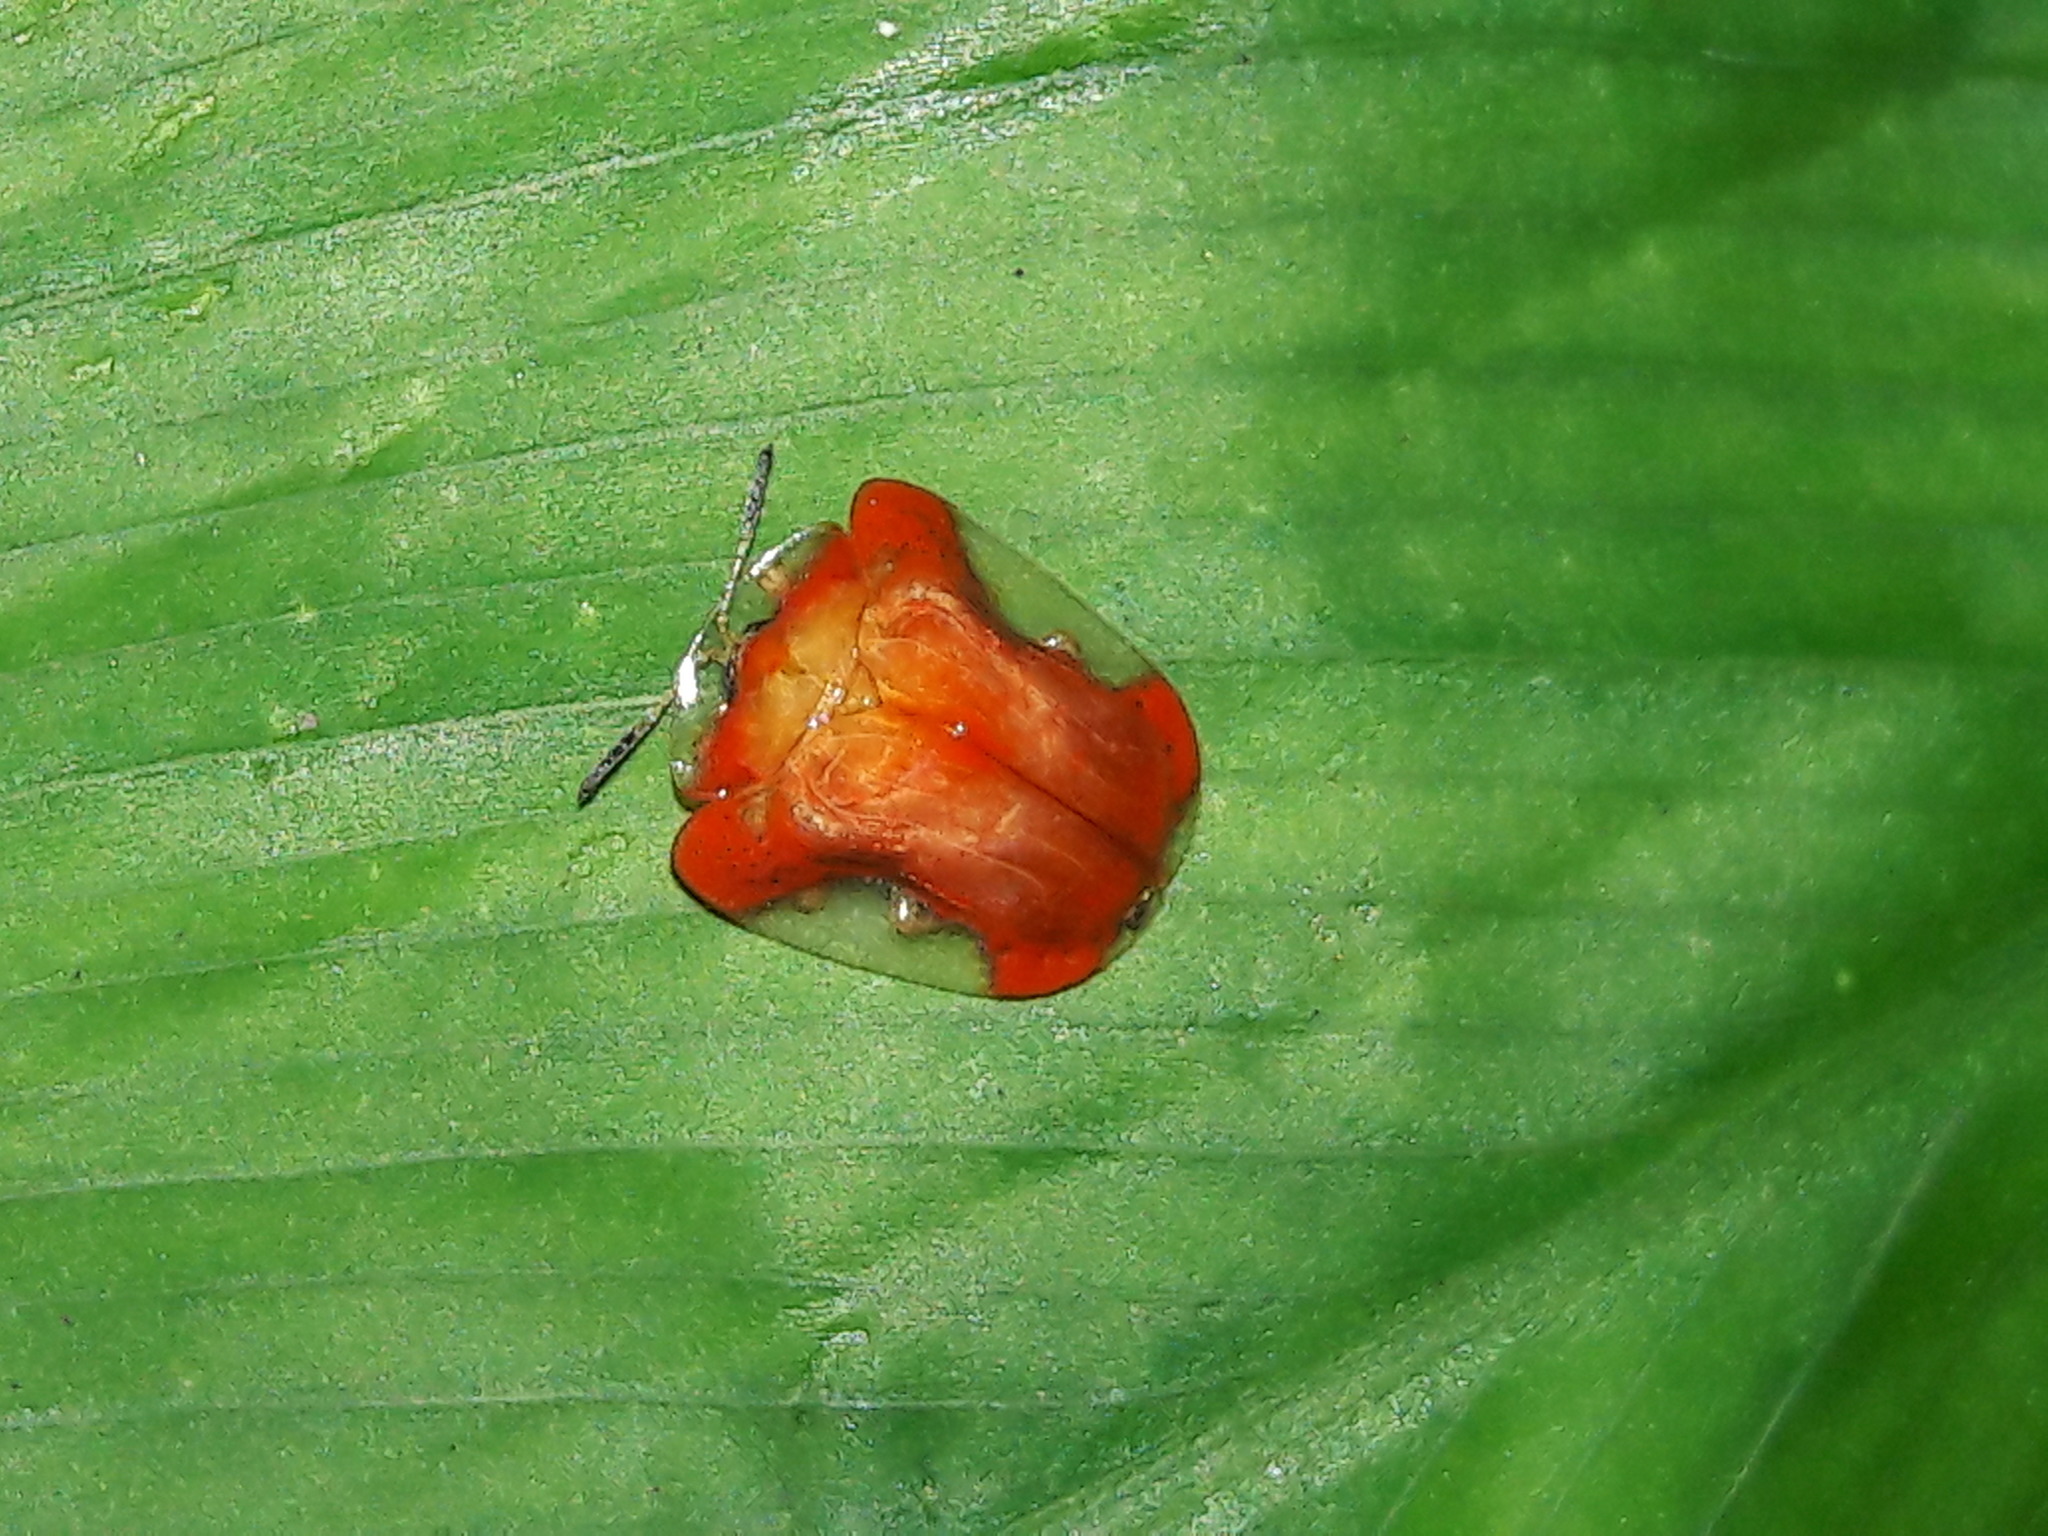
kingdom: Animalia
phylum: Arthropoda
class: Insecta
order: Coleoptera
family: Chrysomelidae
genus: Charidotella
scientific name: Charidotella rubicunda
